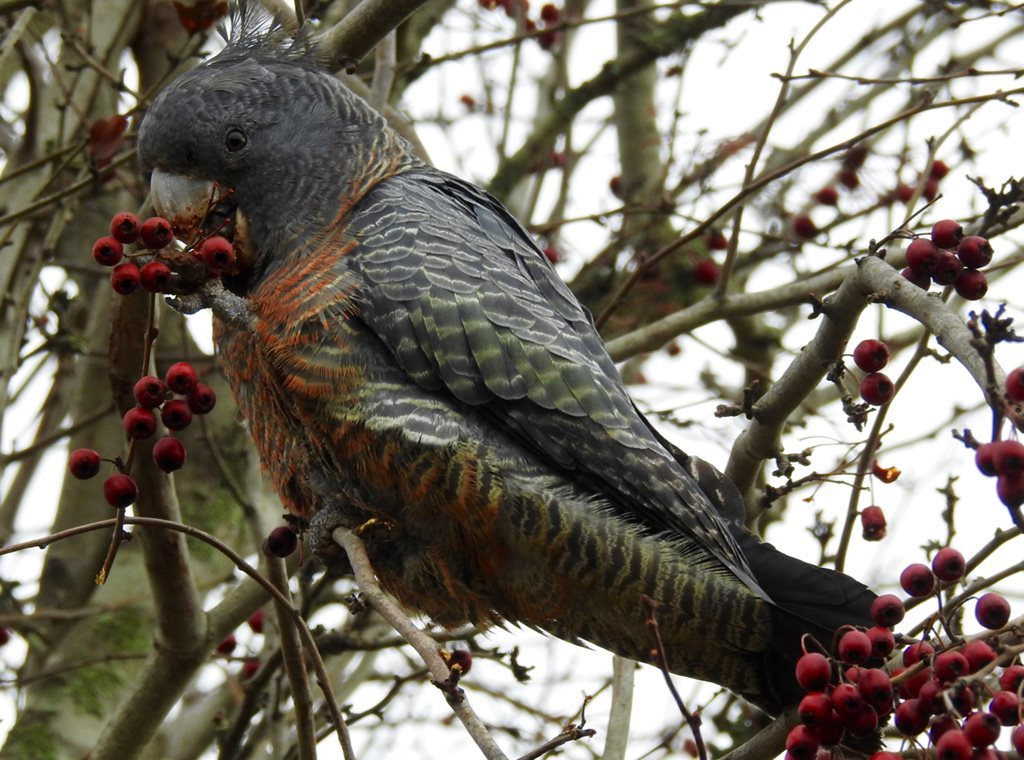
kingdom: Animalia
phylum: Chordata
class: Aves
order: Psittaciformes
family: Psittacidae
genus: Callocephalon
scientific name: Callocephalon fimbriatum
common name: Gang-gang cockatoo
